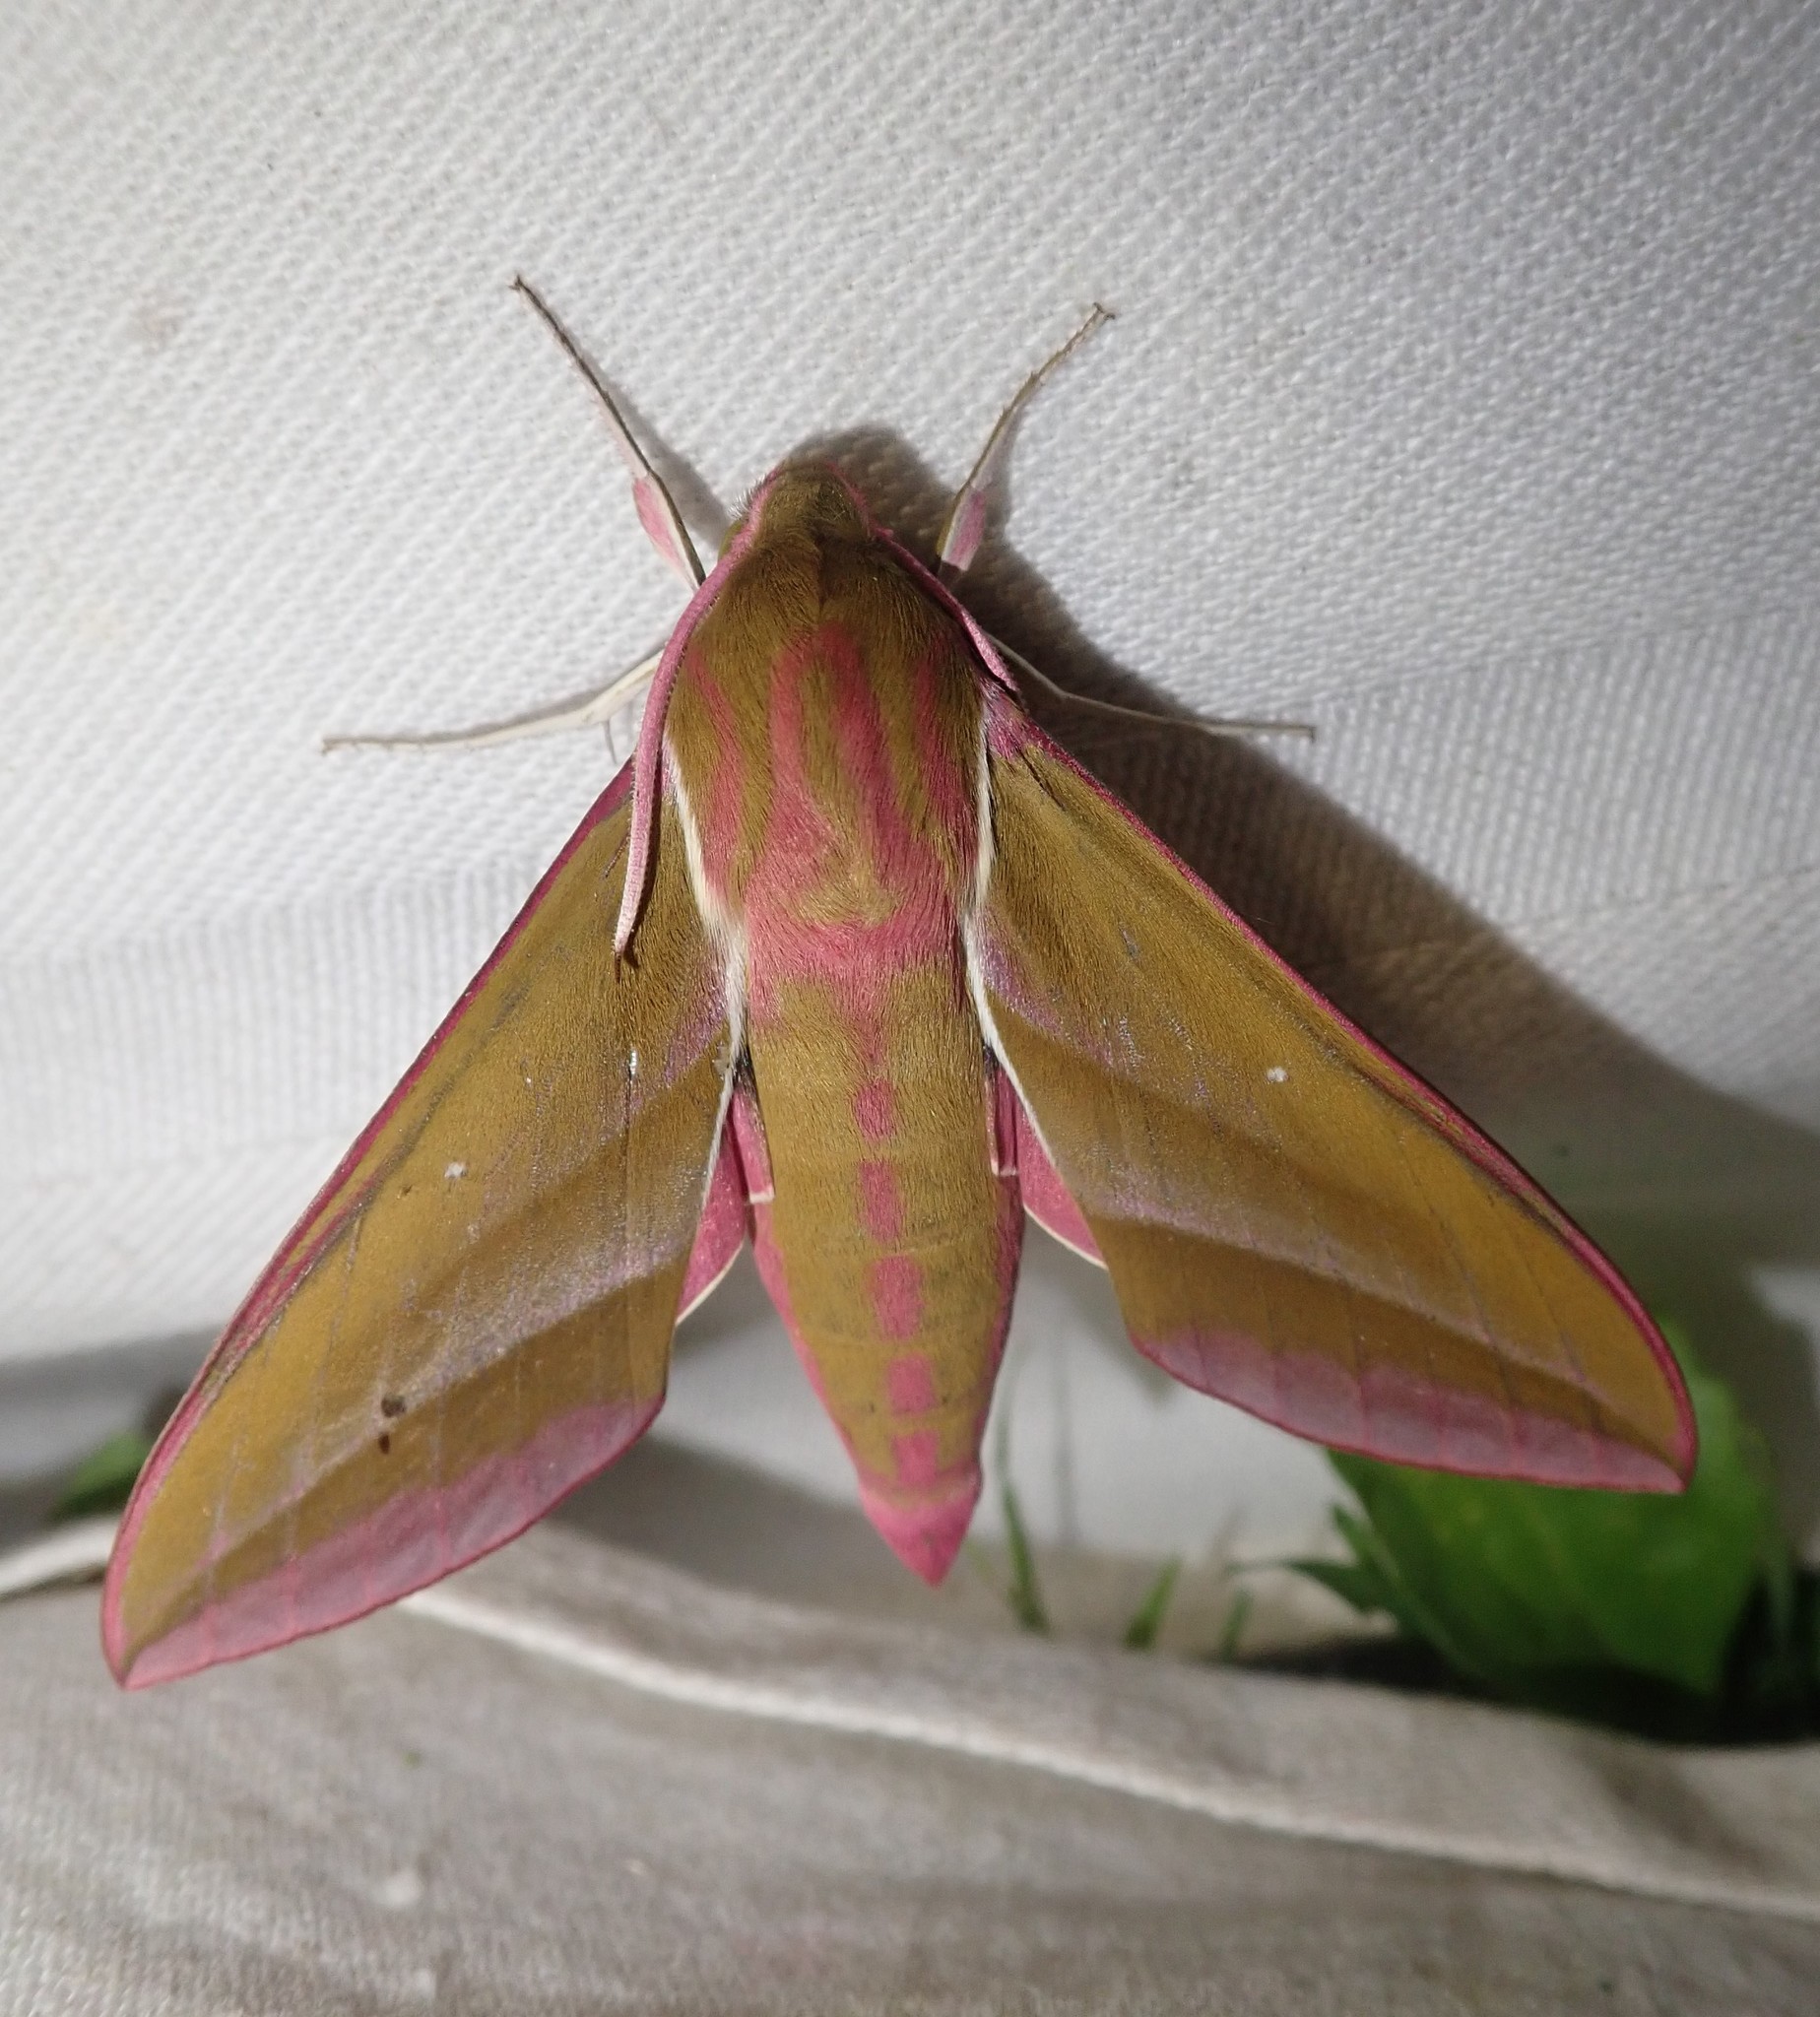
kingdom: Animalia
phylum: Arthropoda
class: Insecta
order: Lepidoptera
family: Sphingidae
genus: Deilephila
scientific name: Deilephila elpenor
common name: Elephant hawk-moth
